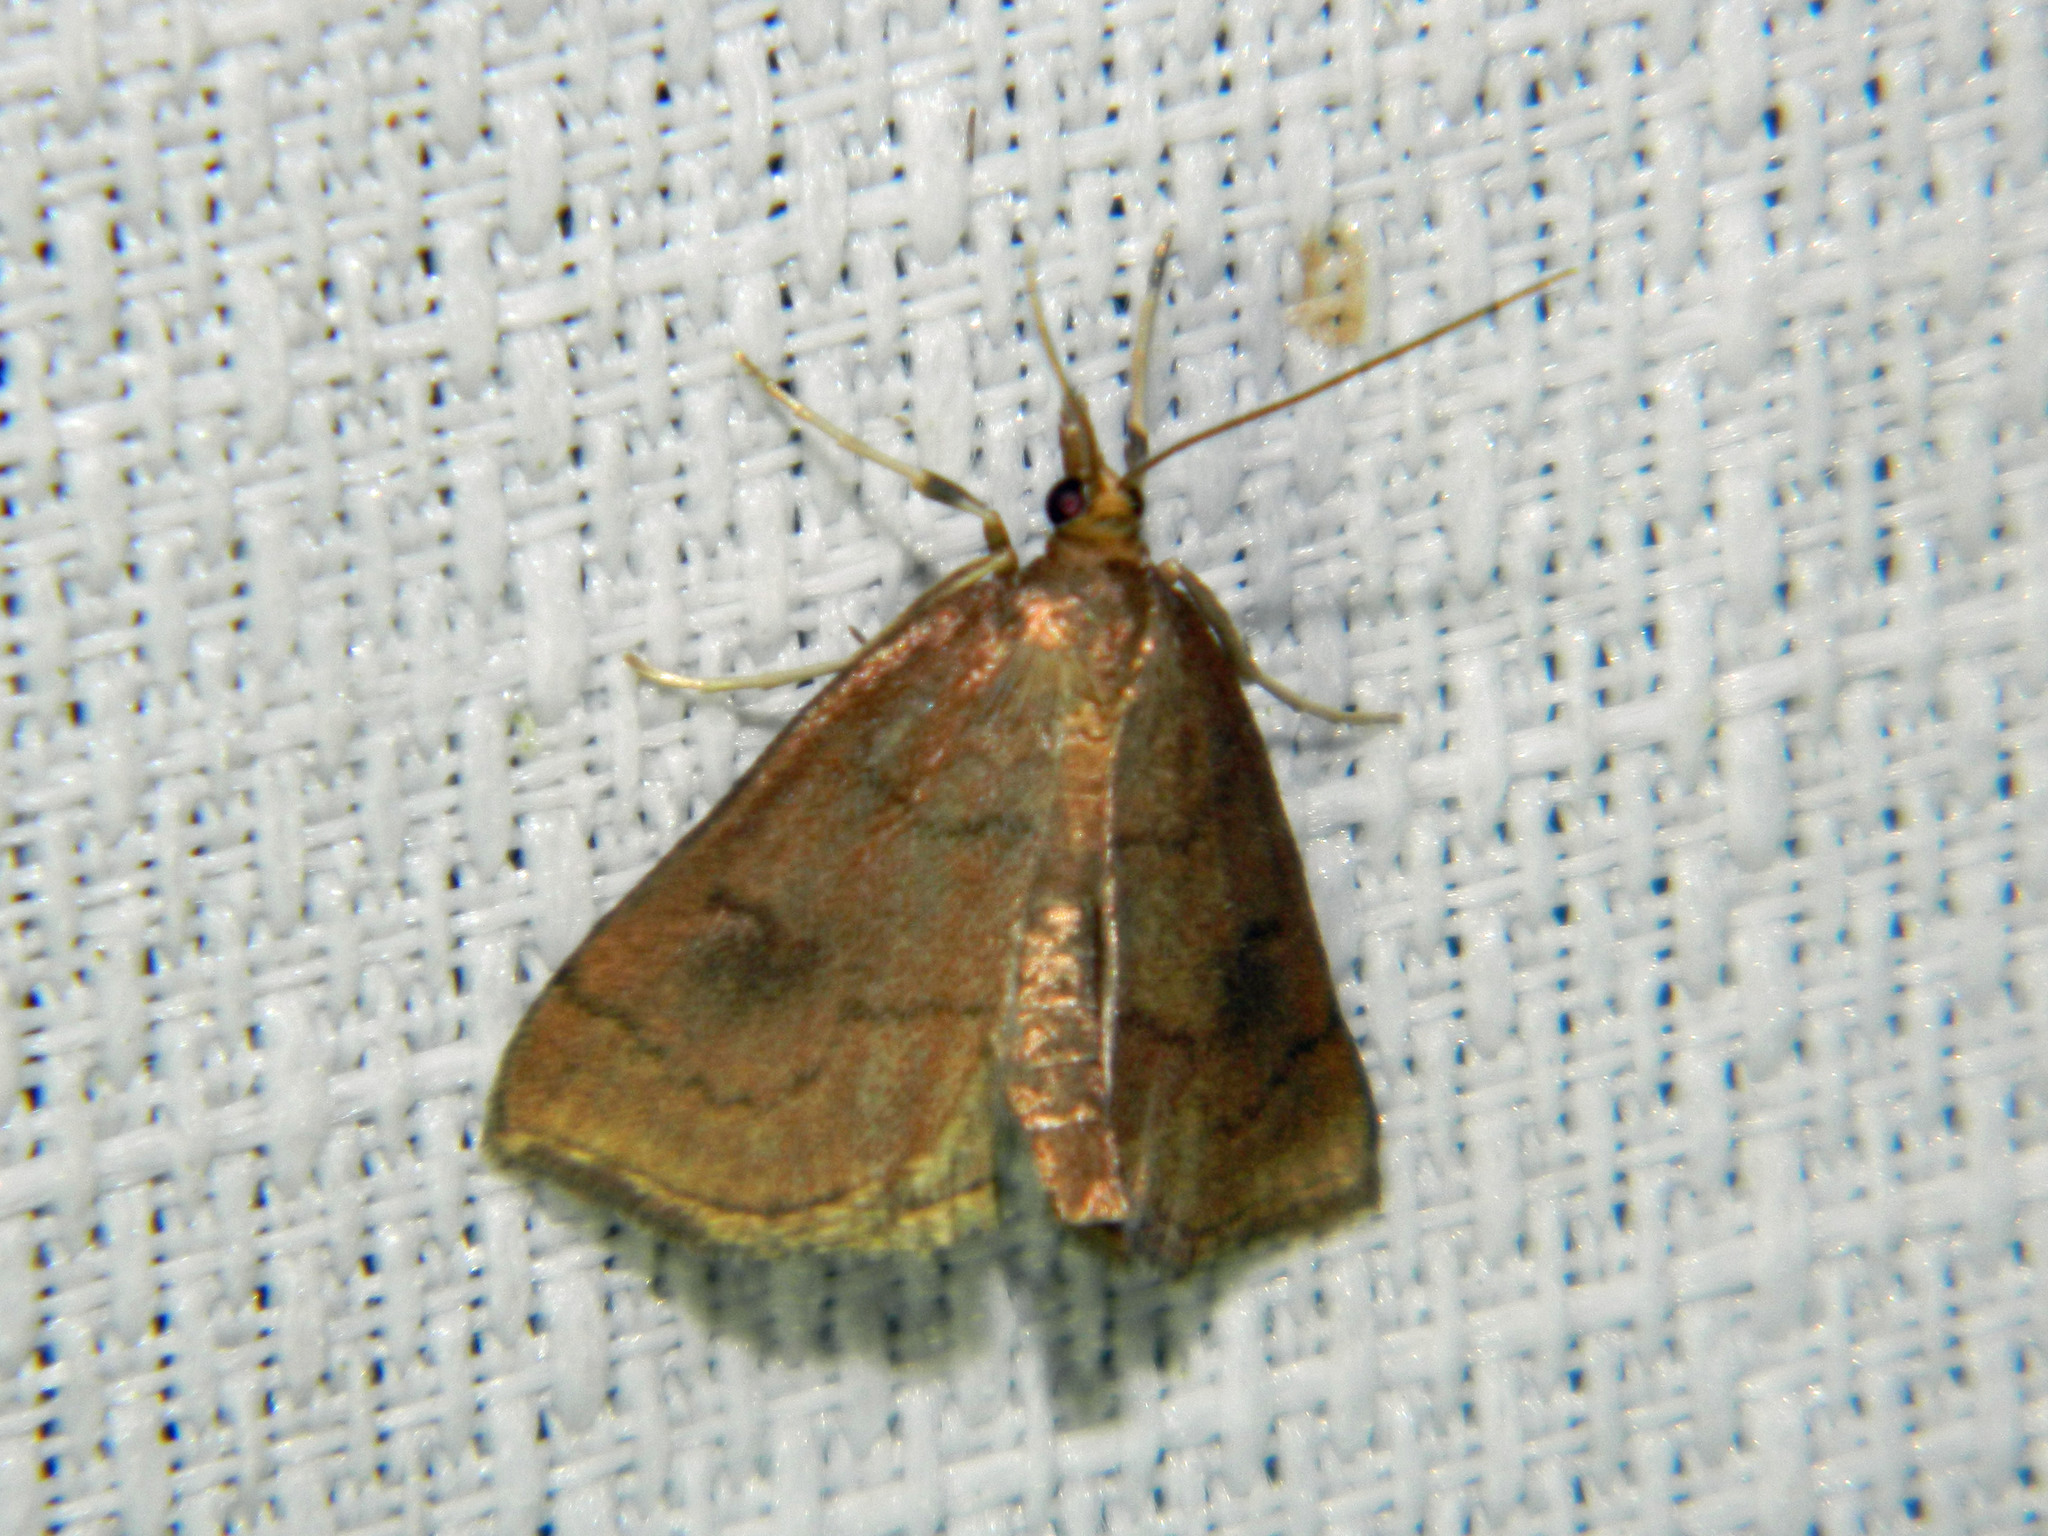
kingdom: Animalia
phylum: Arthropoda
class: Insecta
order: Lepidoptera
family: Crambidae
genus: Fumibotys
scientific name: Fumibotys fumalis
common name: Mint root borer moth
